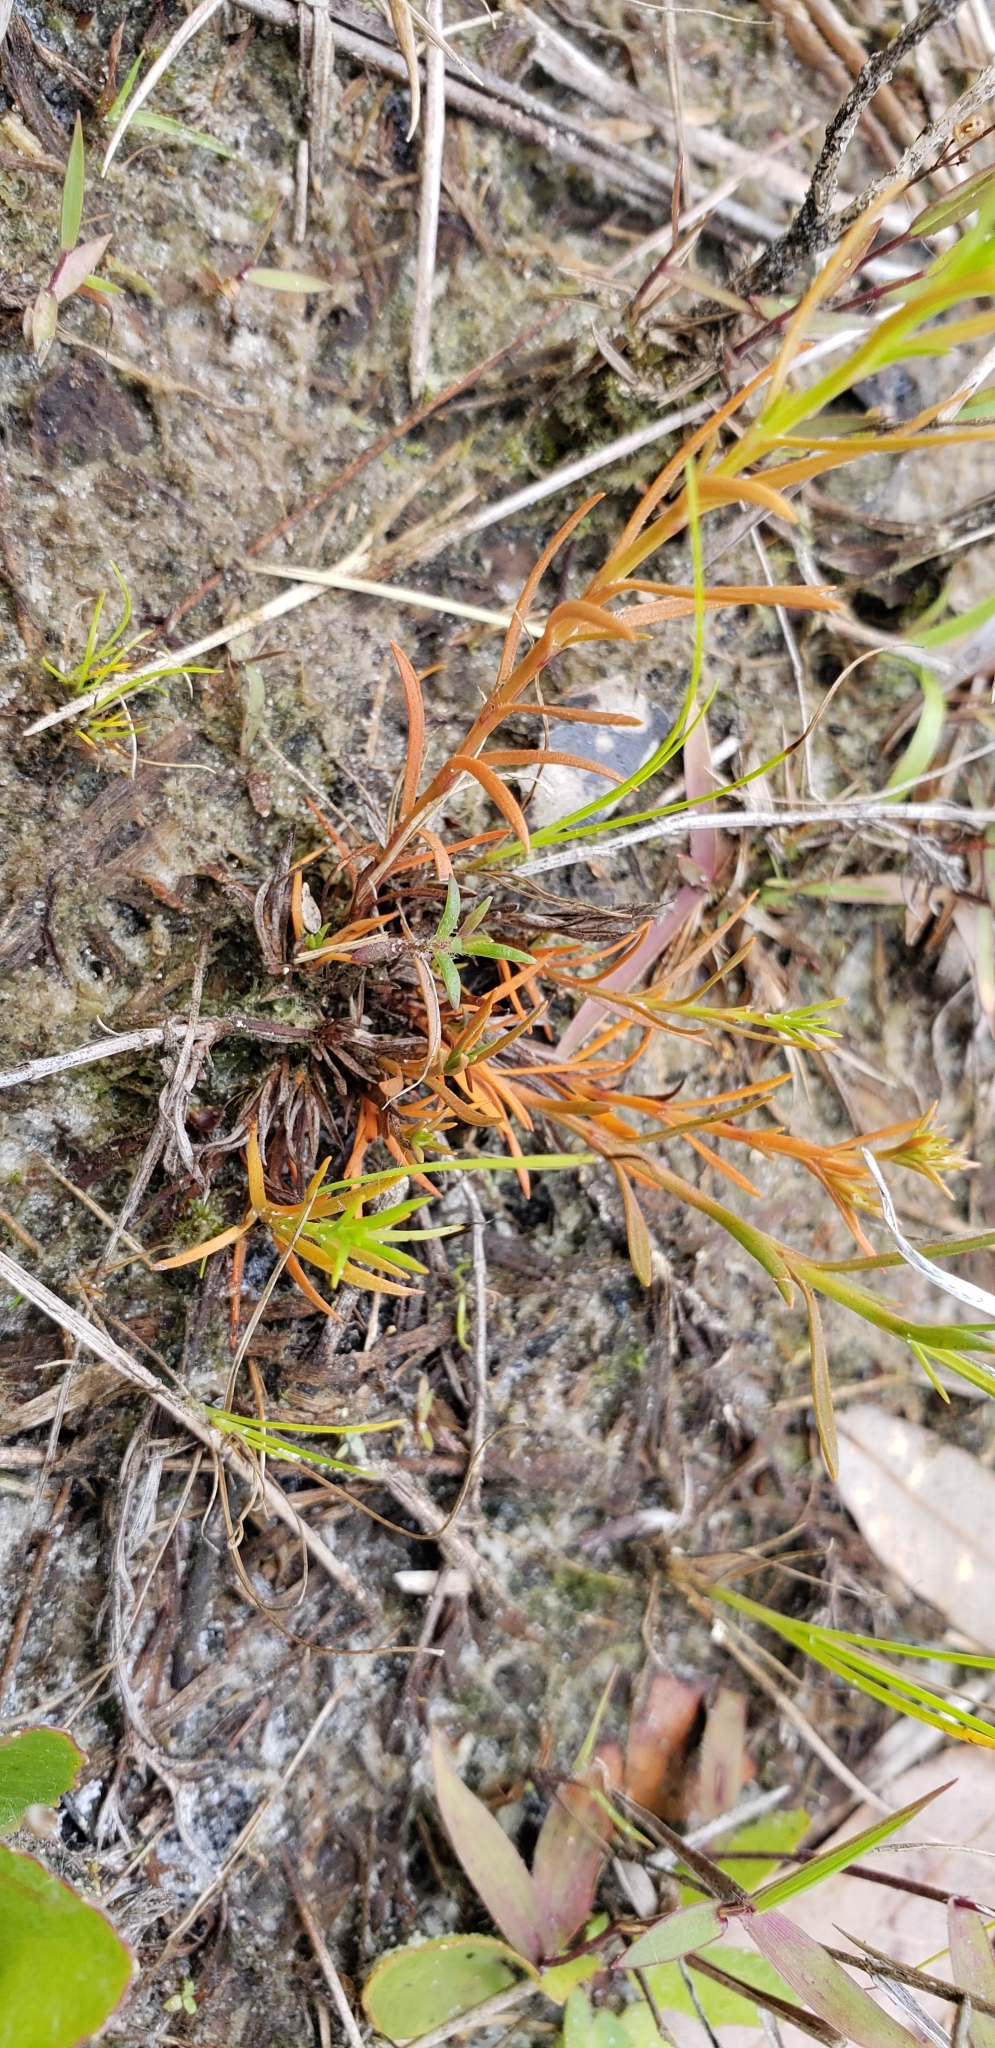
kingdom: Plantae
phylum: Tracheophyta
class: Magnoliopsida
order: Lamiales
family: Tetrachondraceae
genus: Polypremum
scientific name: Polypremum procumbens
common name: Juniper-leaf
